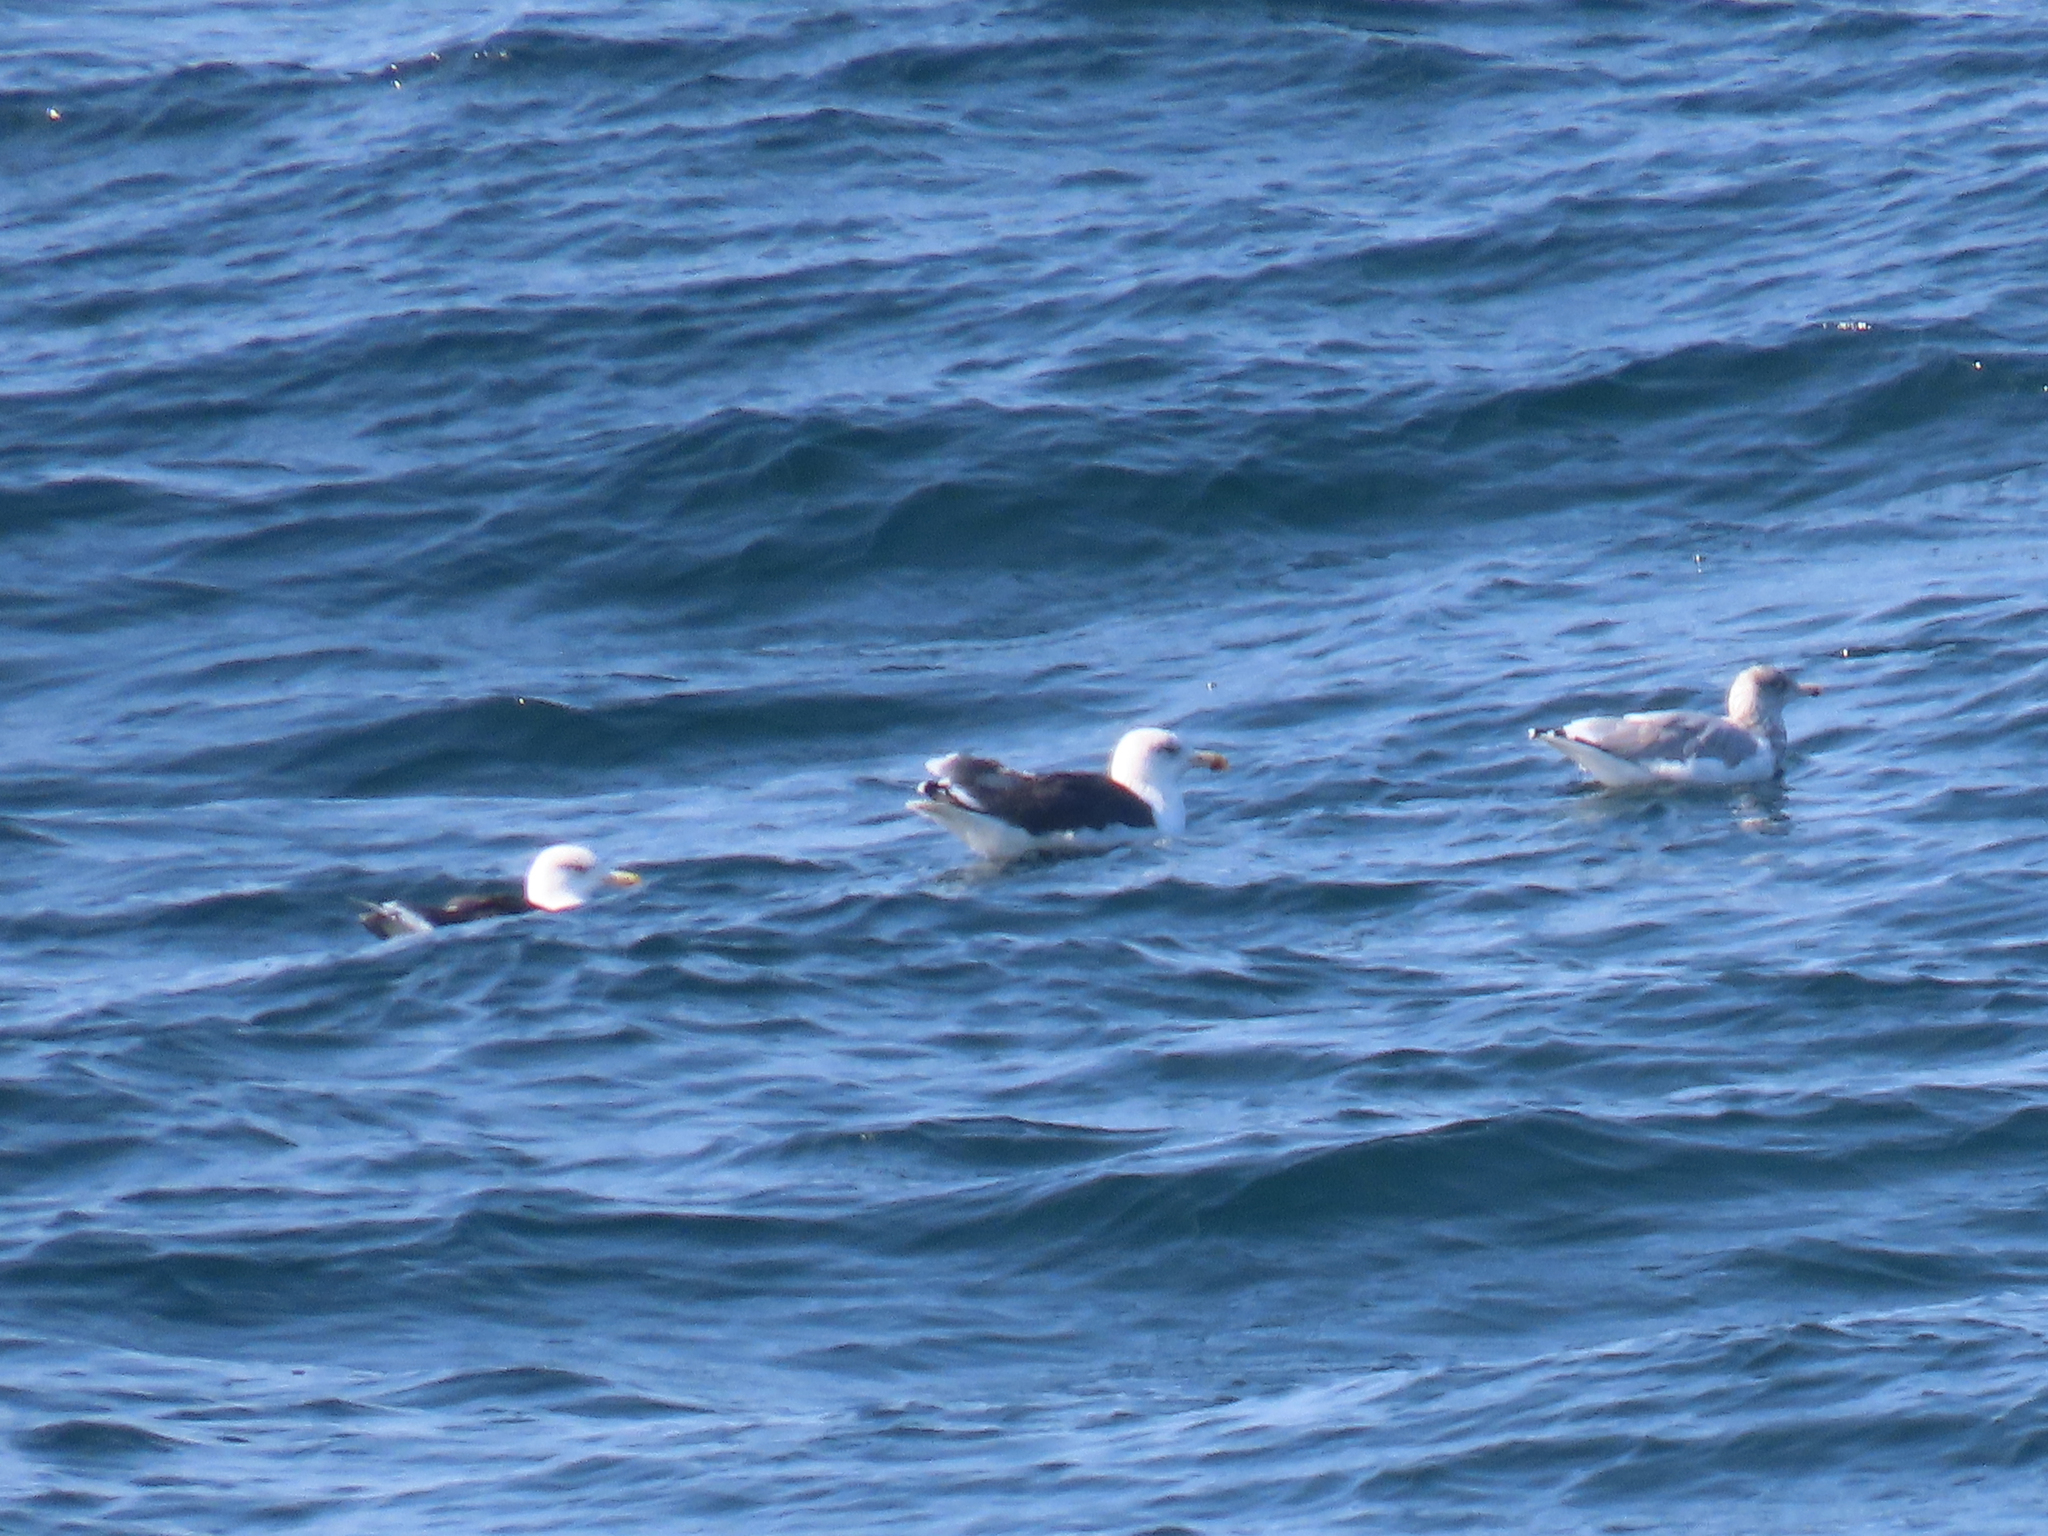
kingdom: Animalia
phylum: Chordata
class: Aves
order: Charadriiformes
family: Laridae
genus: Larus
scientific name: Larus argentatus
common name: Herring gull
